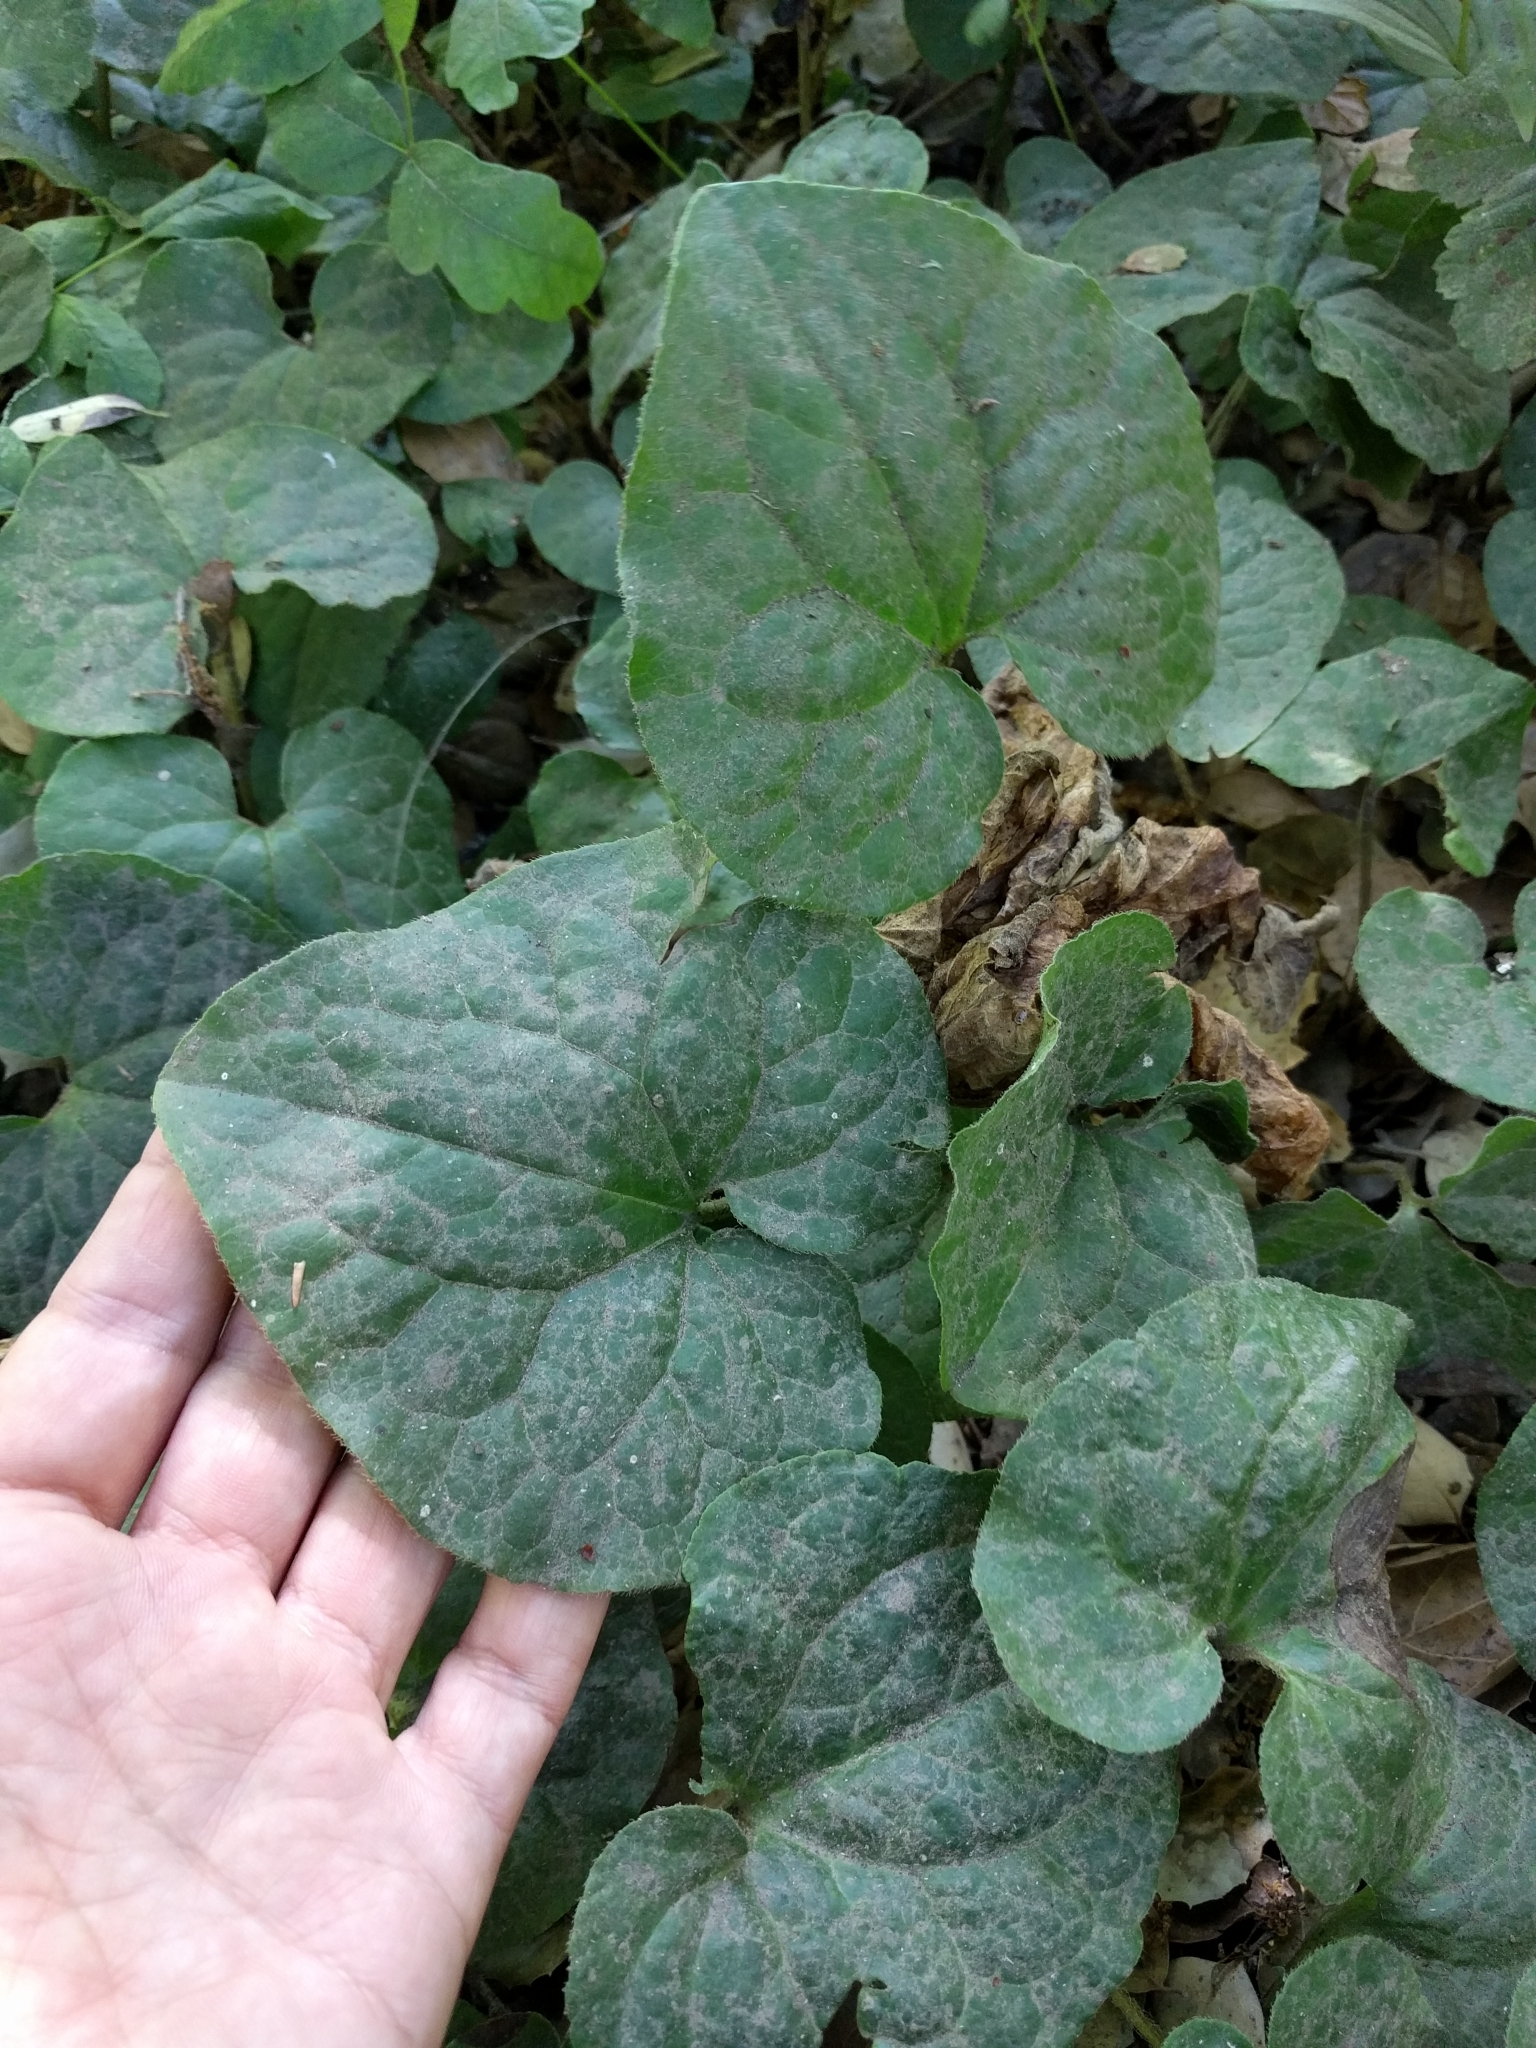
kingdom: Plantae
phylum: Tracheophyta
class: Magnoliopsida
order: Piperales
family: Aristolochiaceae
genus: Asarum
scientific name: Asarum caudatum
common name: Wild ginger
